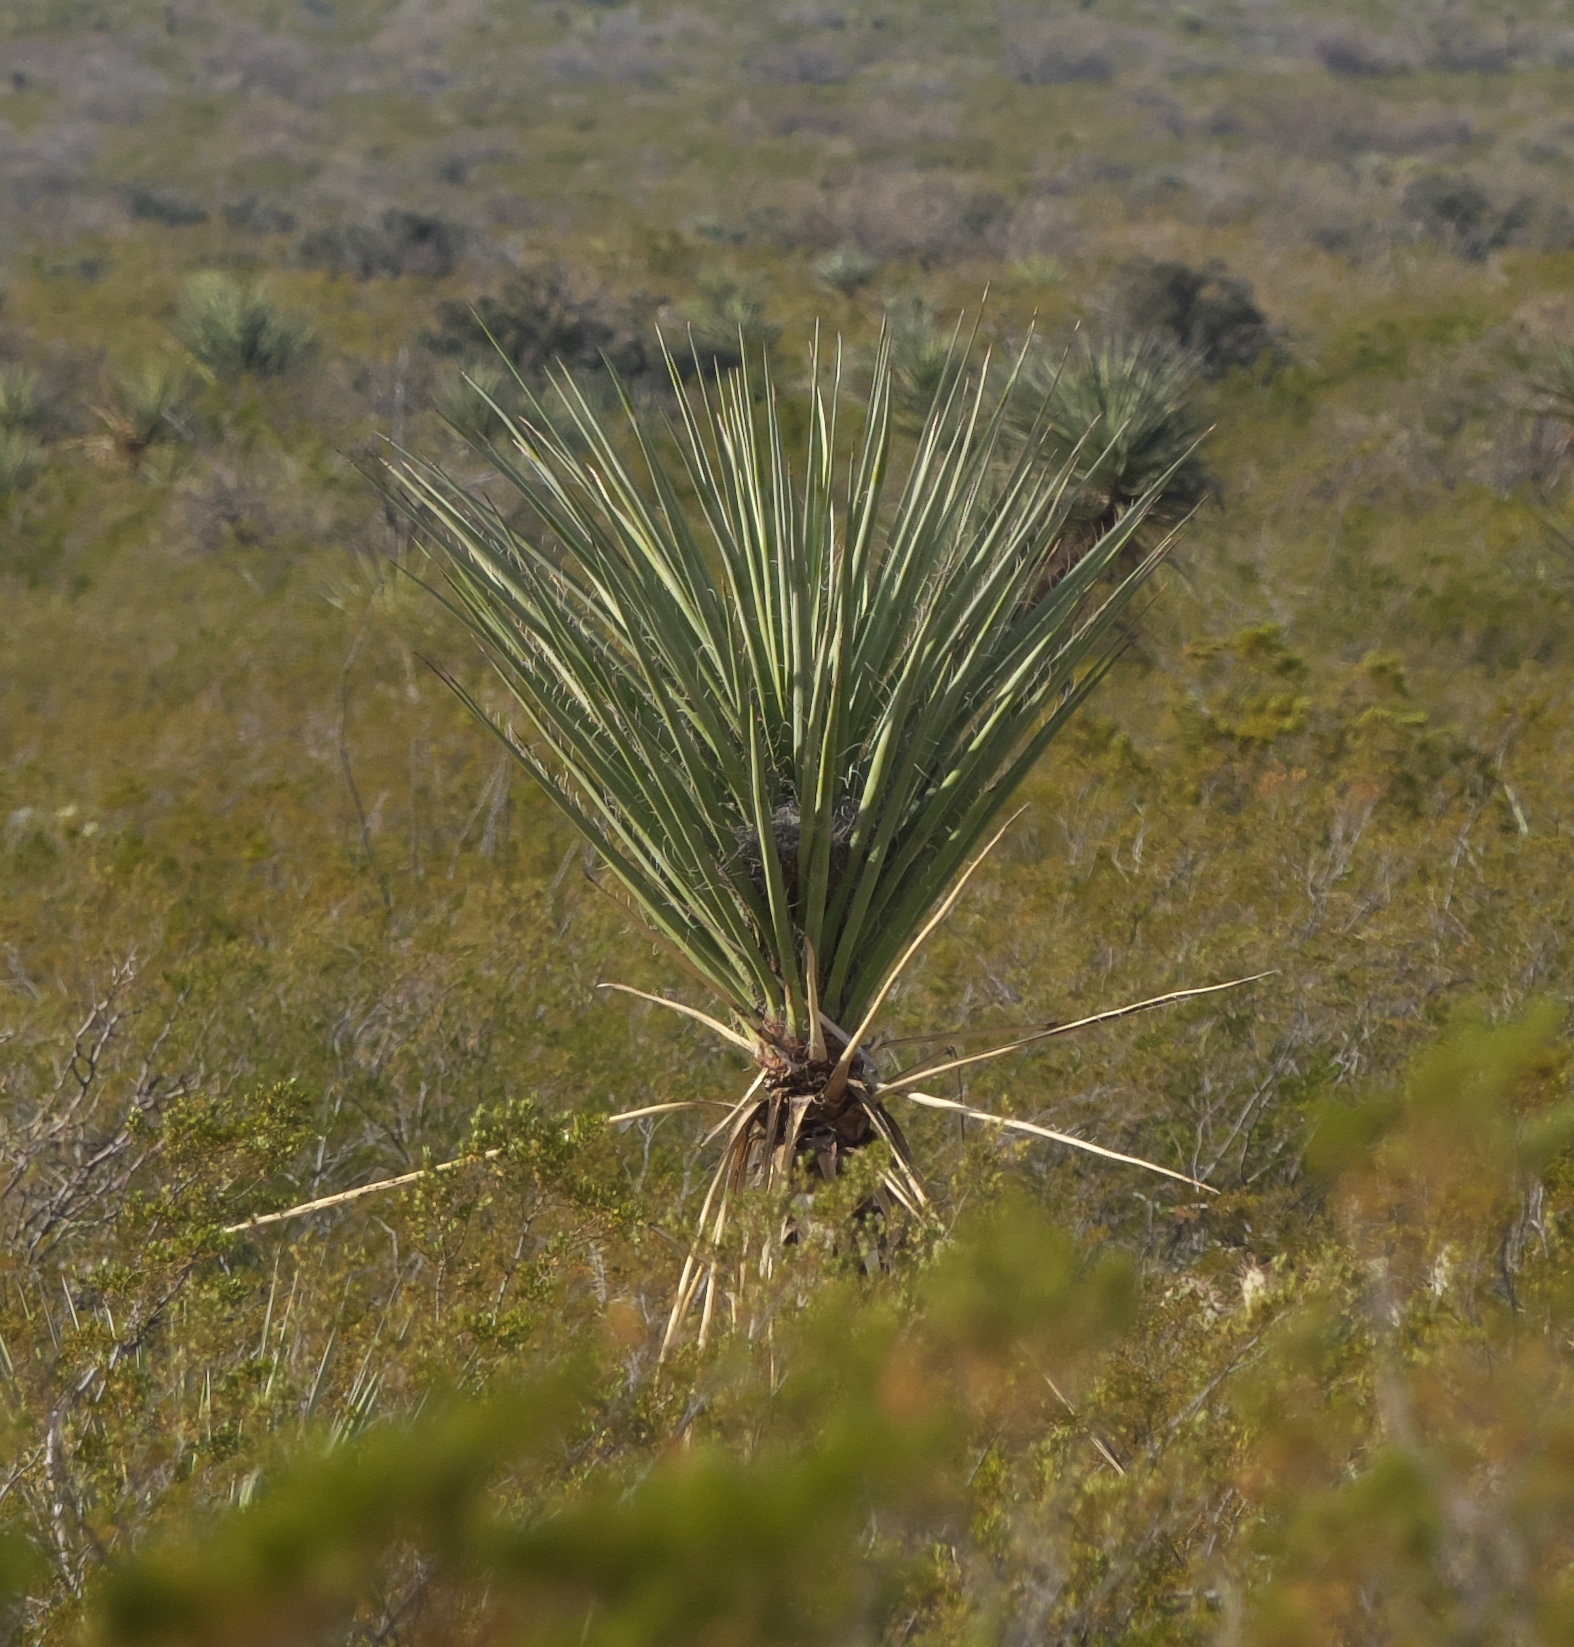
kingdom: Plantae
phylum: Tracheophyta
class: Liliopsida
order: Asparagales
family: Asparagaceae
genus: Yucca
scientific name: Yucca treculiana
